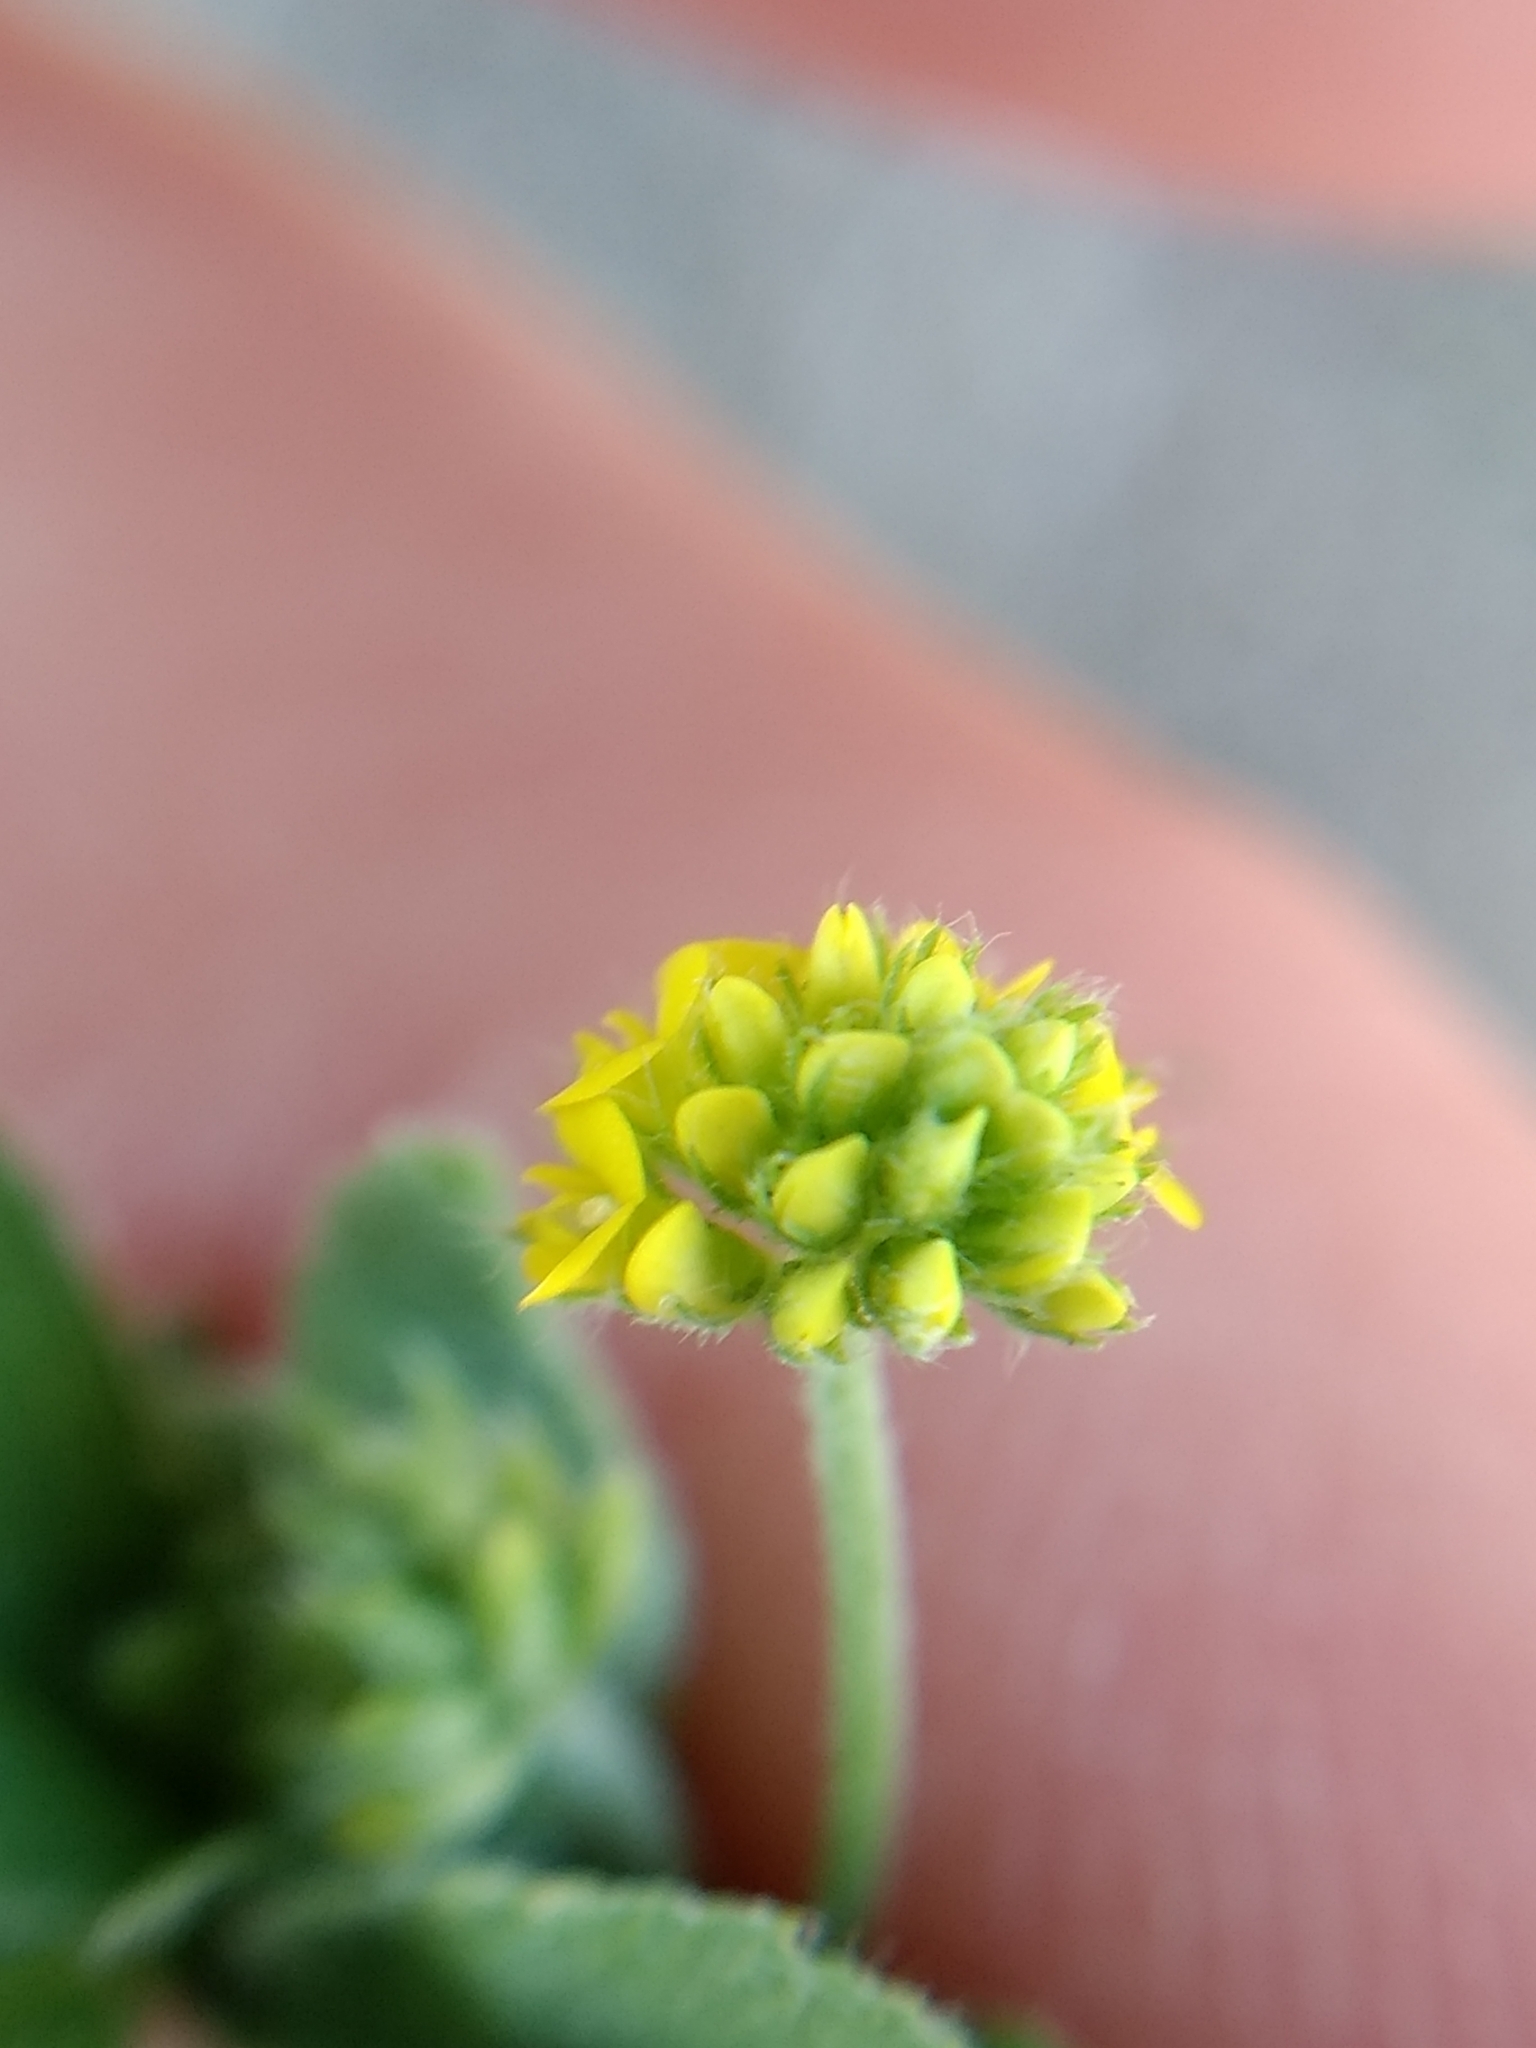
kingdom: Plantae
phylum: Tracheophyta
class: Magnoliopsida
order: Fabales
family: Fabaceae
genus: Medicago
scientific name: Medicago lupulina
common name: Black medick
